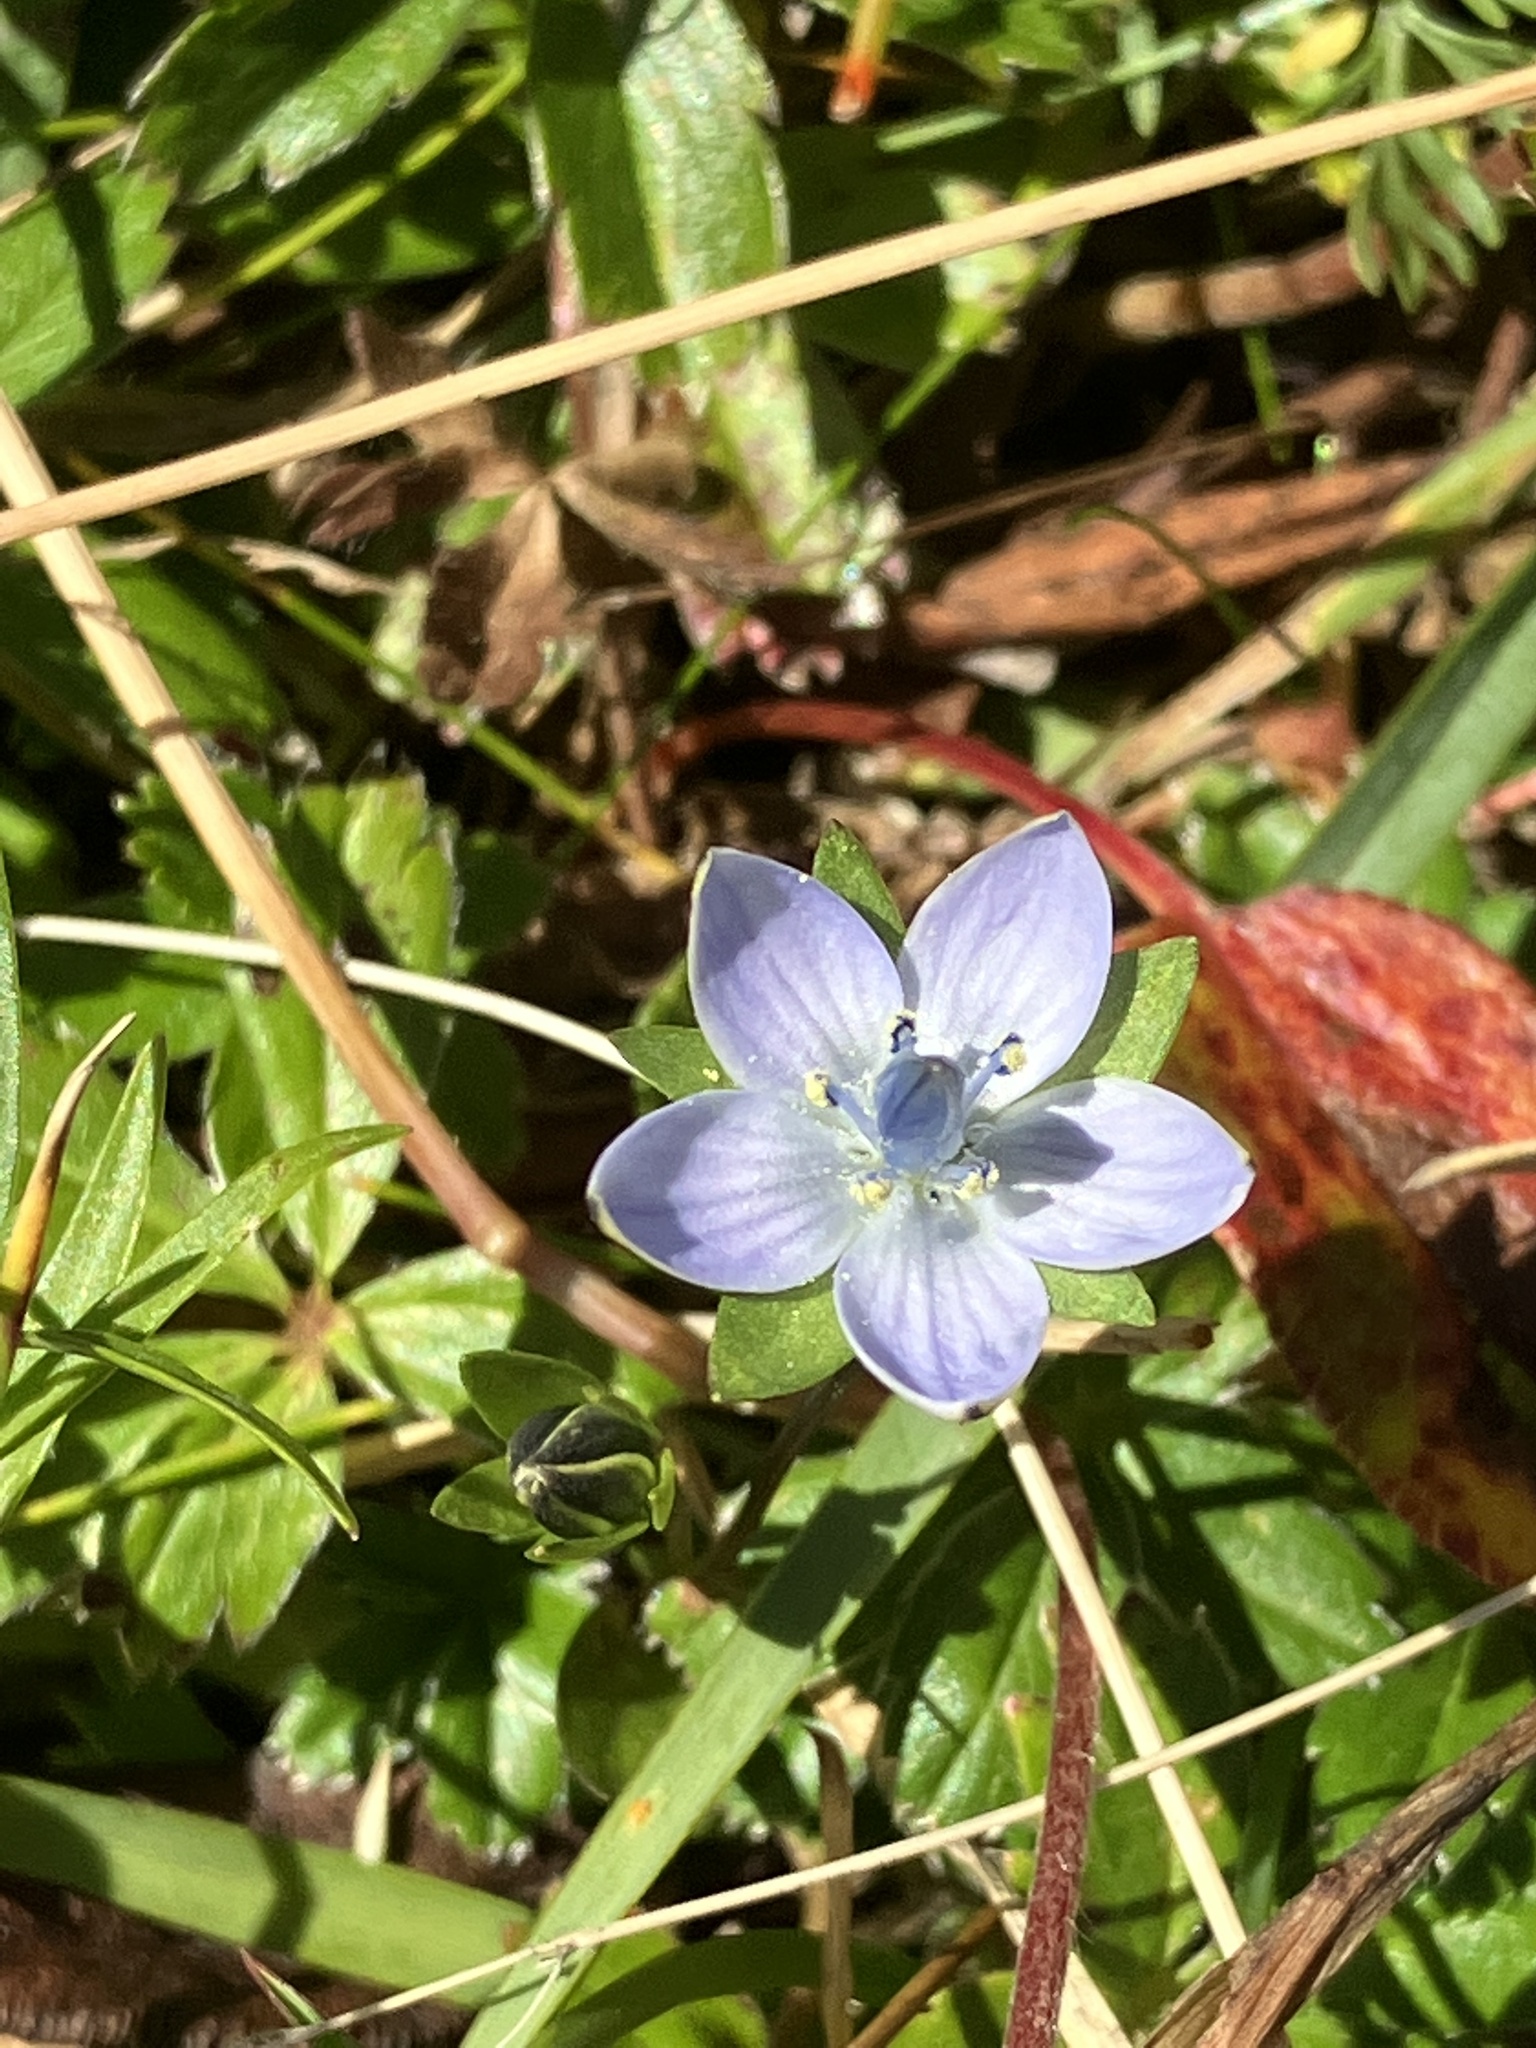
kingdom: Plantae
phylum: Tracheophyta
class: Magnoliopsida
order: Gentianales
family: Gentianaceae
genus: Lomatogonium
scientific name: Lomatogonium carinthiacum
